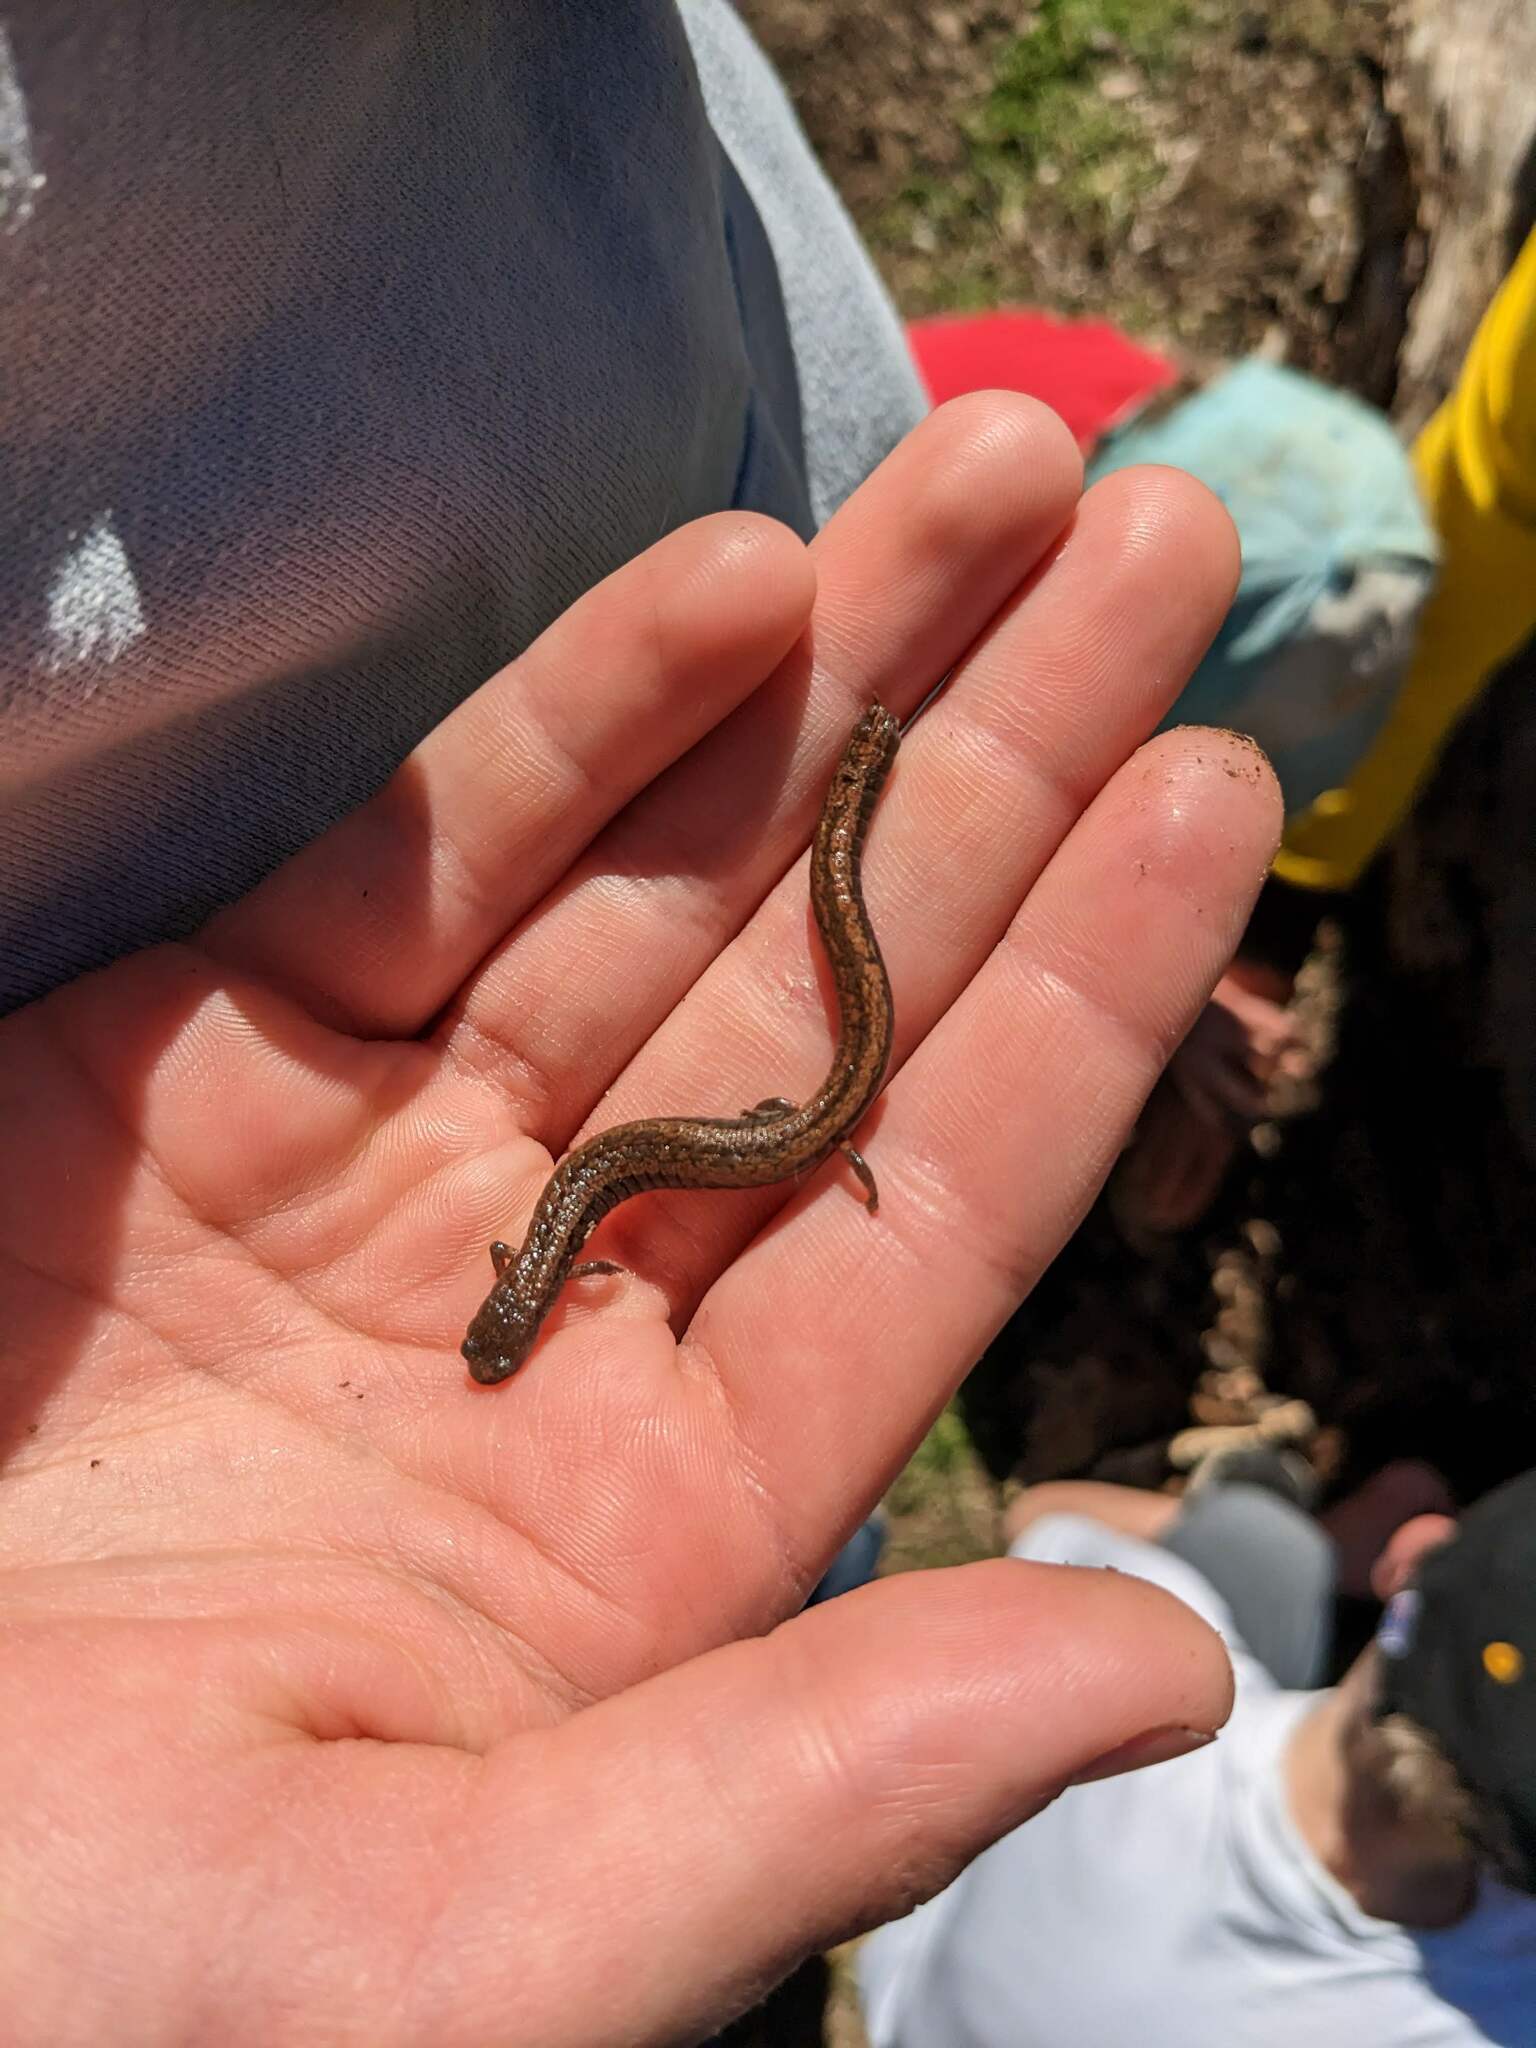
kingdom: Animalia
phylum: Chordata
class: Amphibia
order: Caudata
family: Plethodontidae
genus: Batrachoseps
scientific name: Batrachoseps attenuatus
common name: California slender salamander
